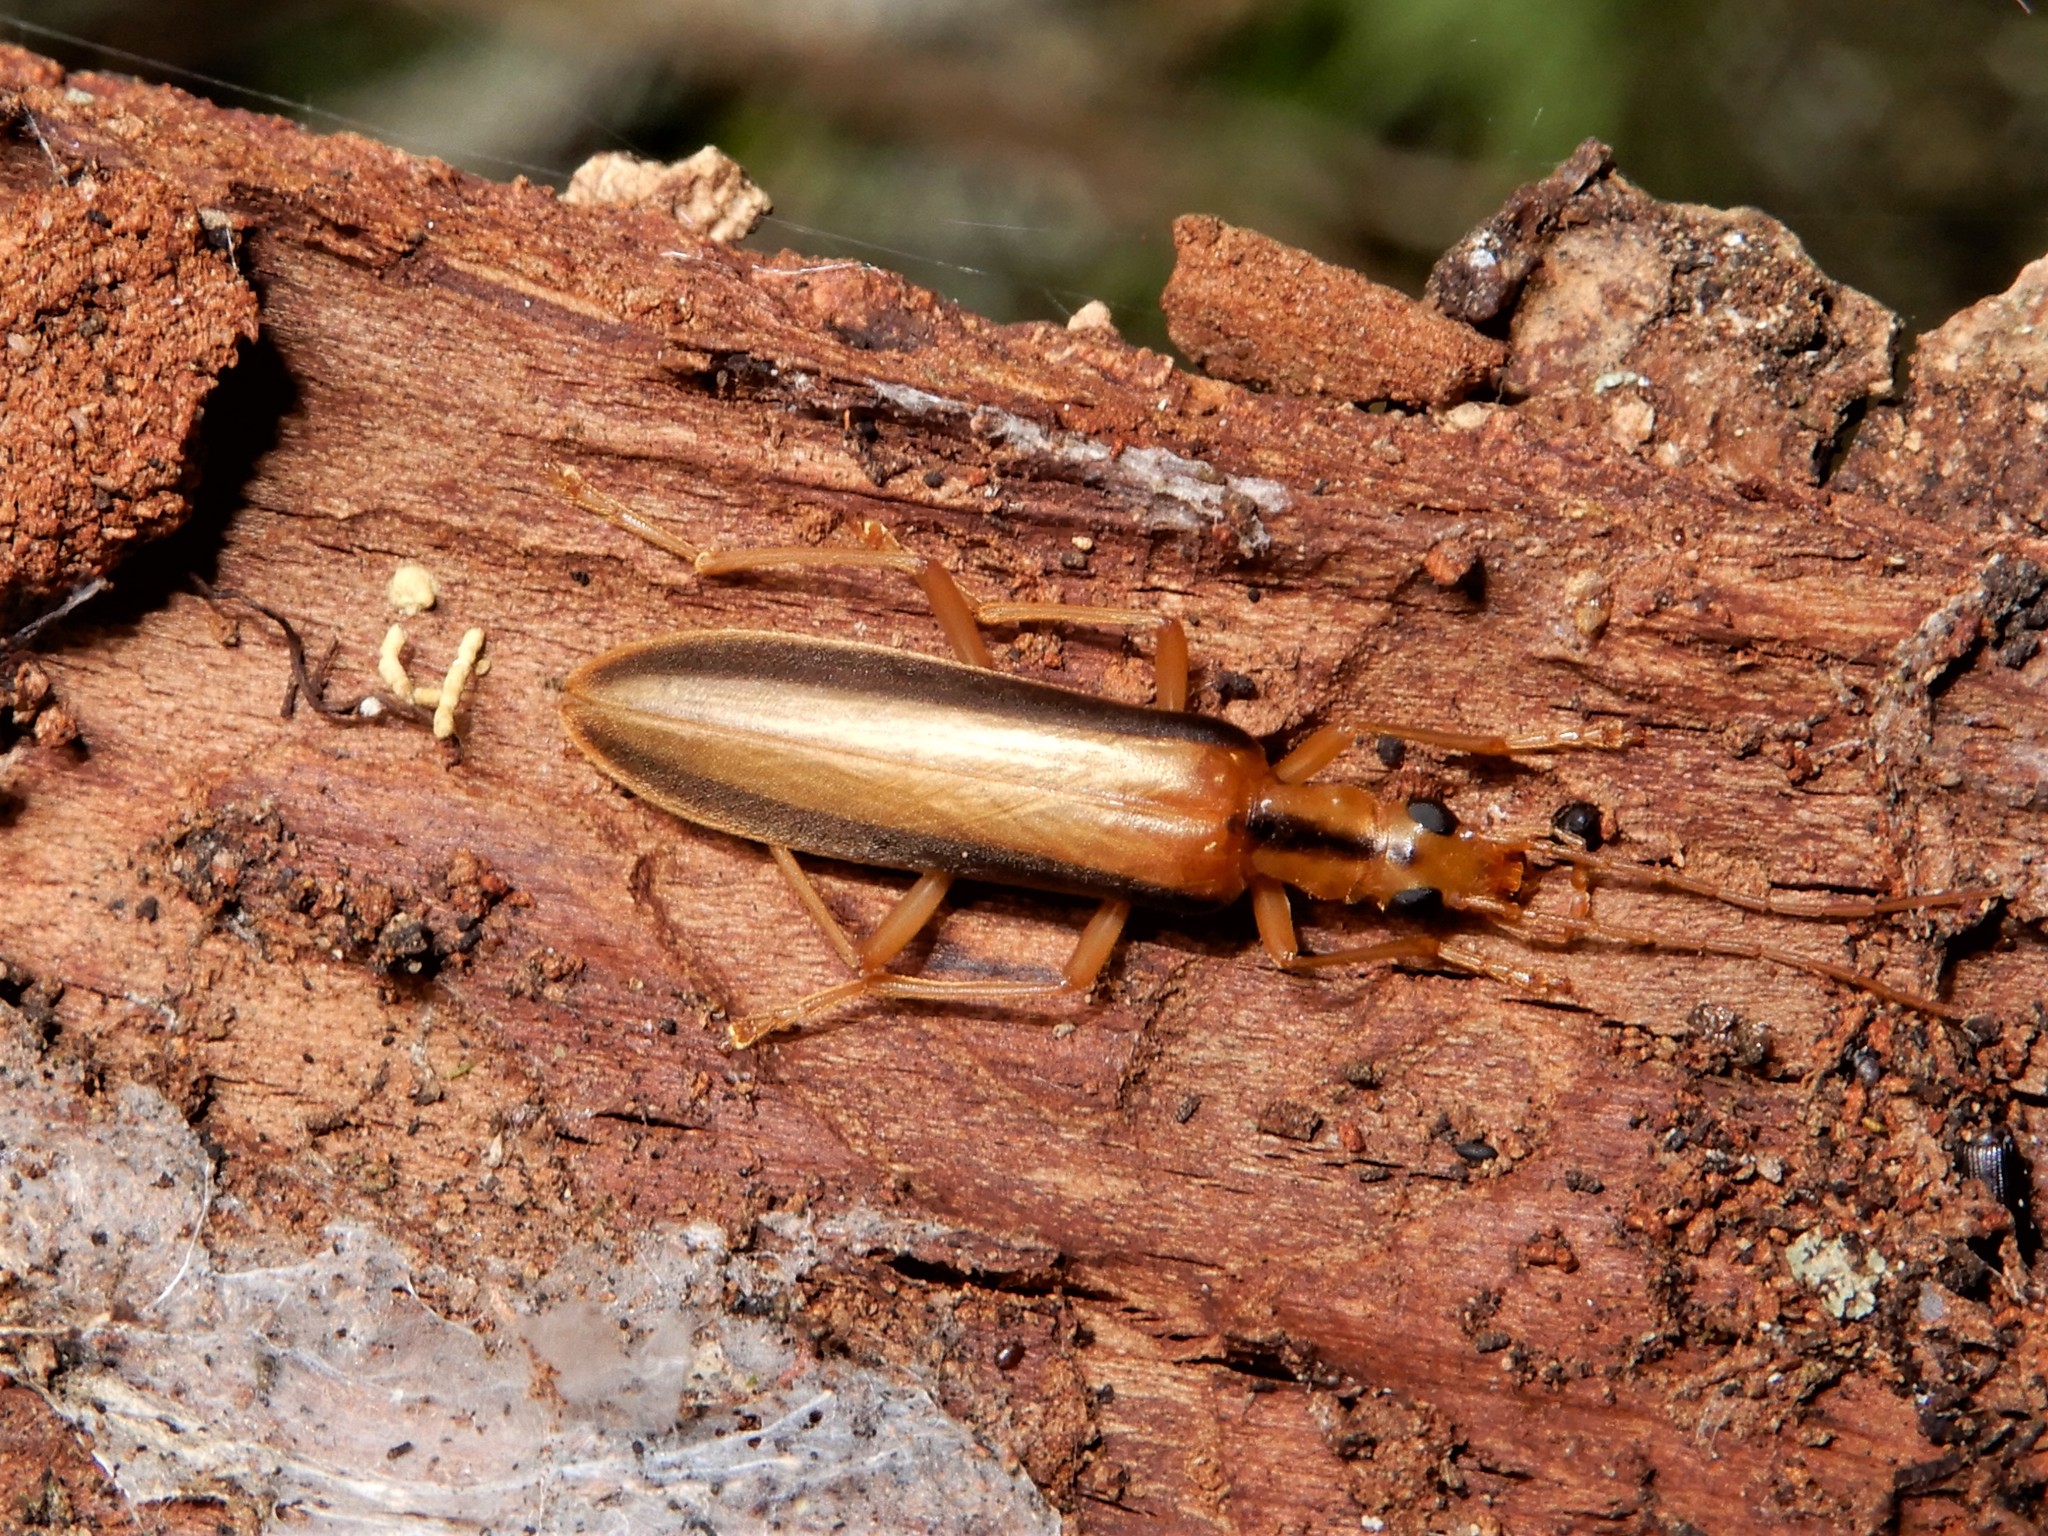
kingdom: Animalia
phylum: Arthropoda
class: Insecta
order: Coleoptera
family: Oedemeridae
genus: Thelyphassa
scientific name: Thelyphassa
